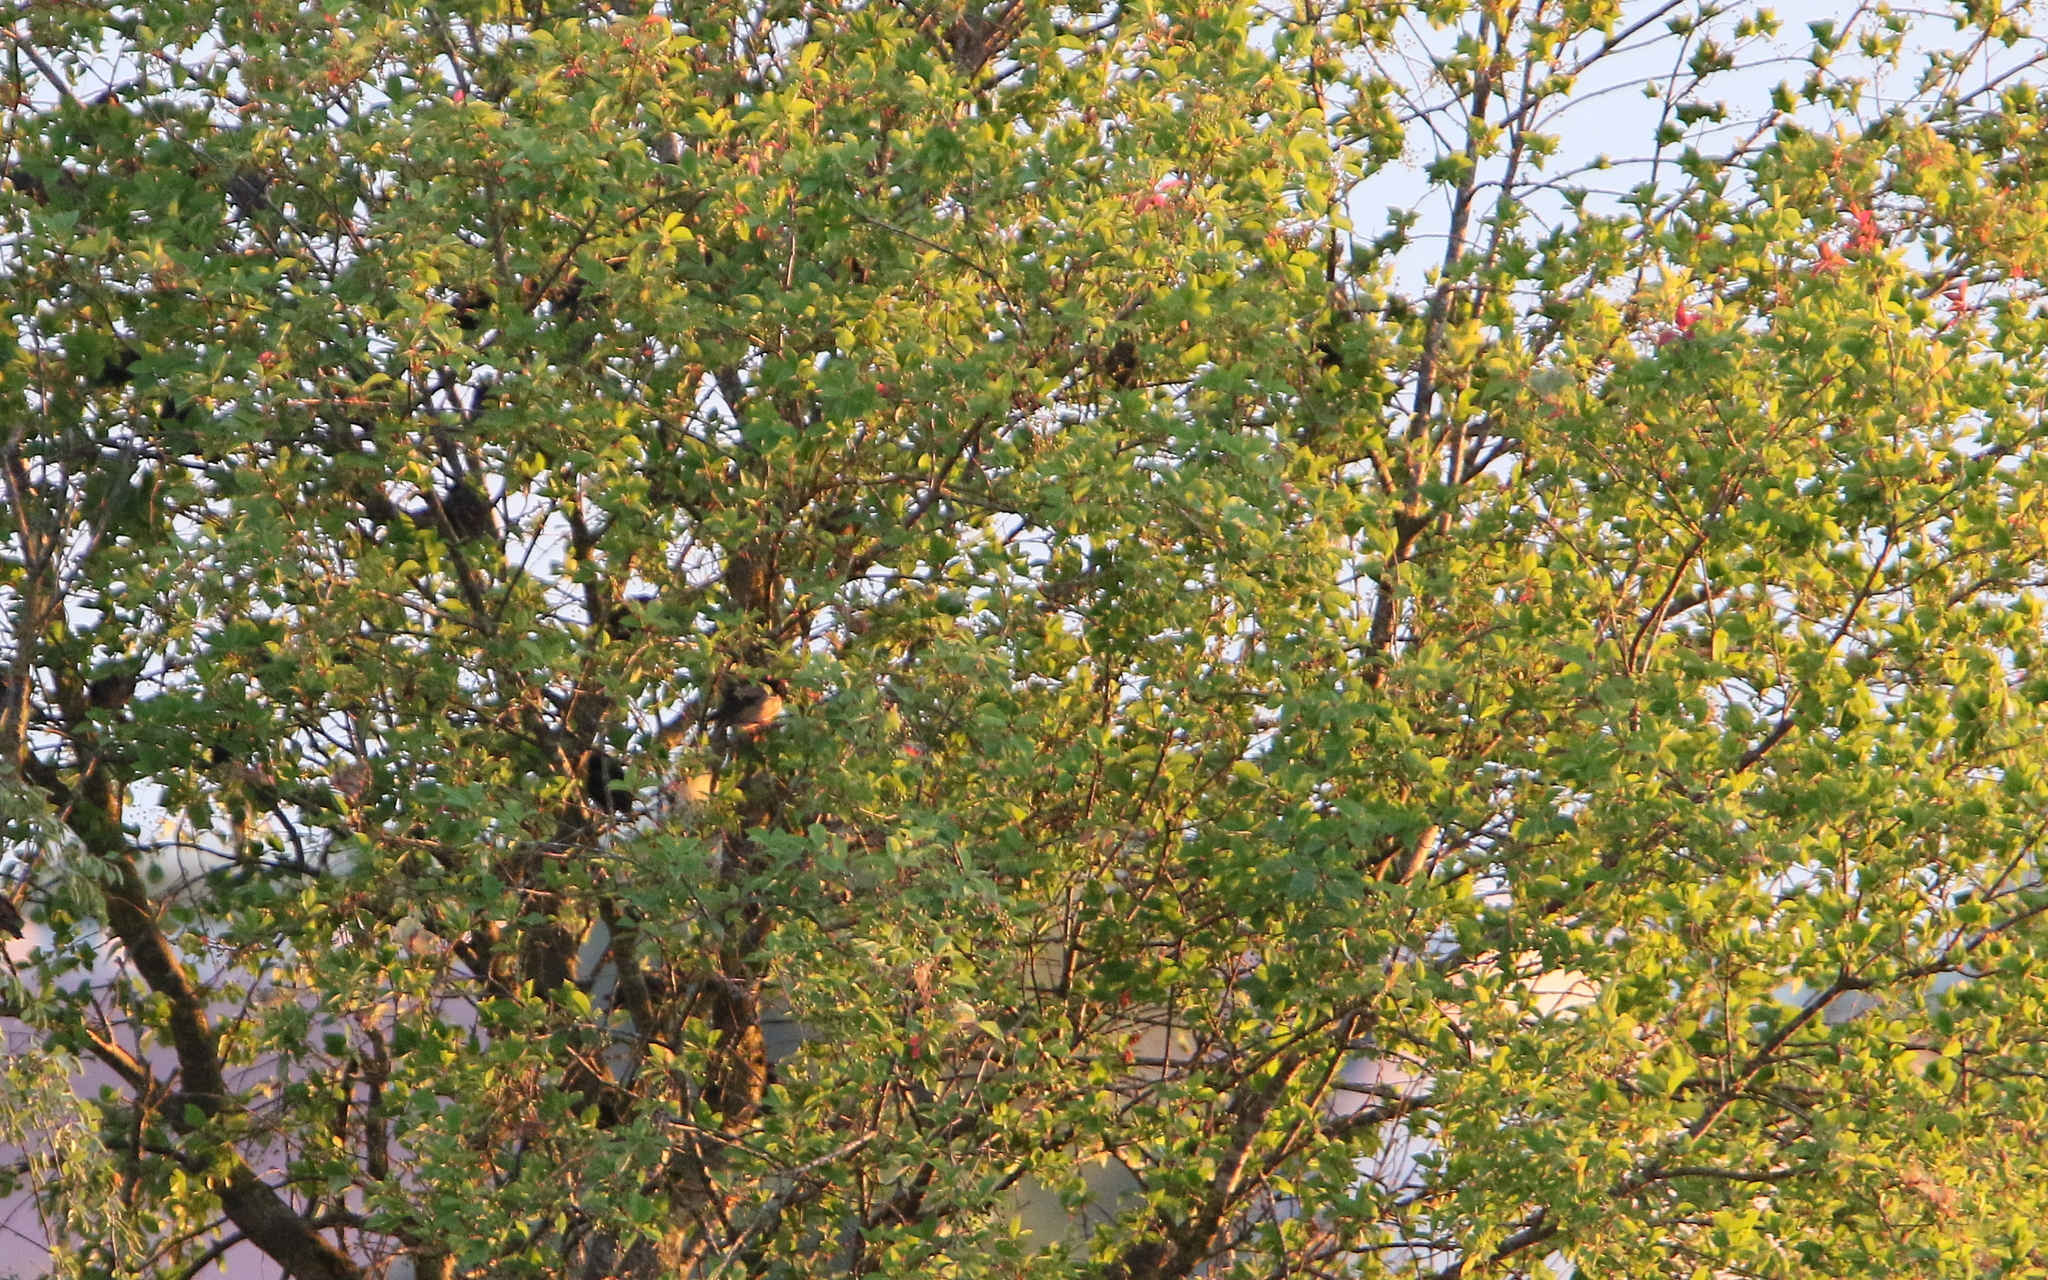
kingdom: Animalia
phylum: Chordata
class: Aves
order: Passeriformes
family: Sturnidae
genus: Pastor
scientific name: Pastor roseus
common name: Rosy starling
